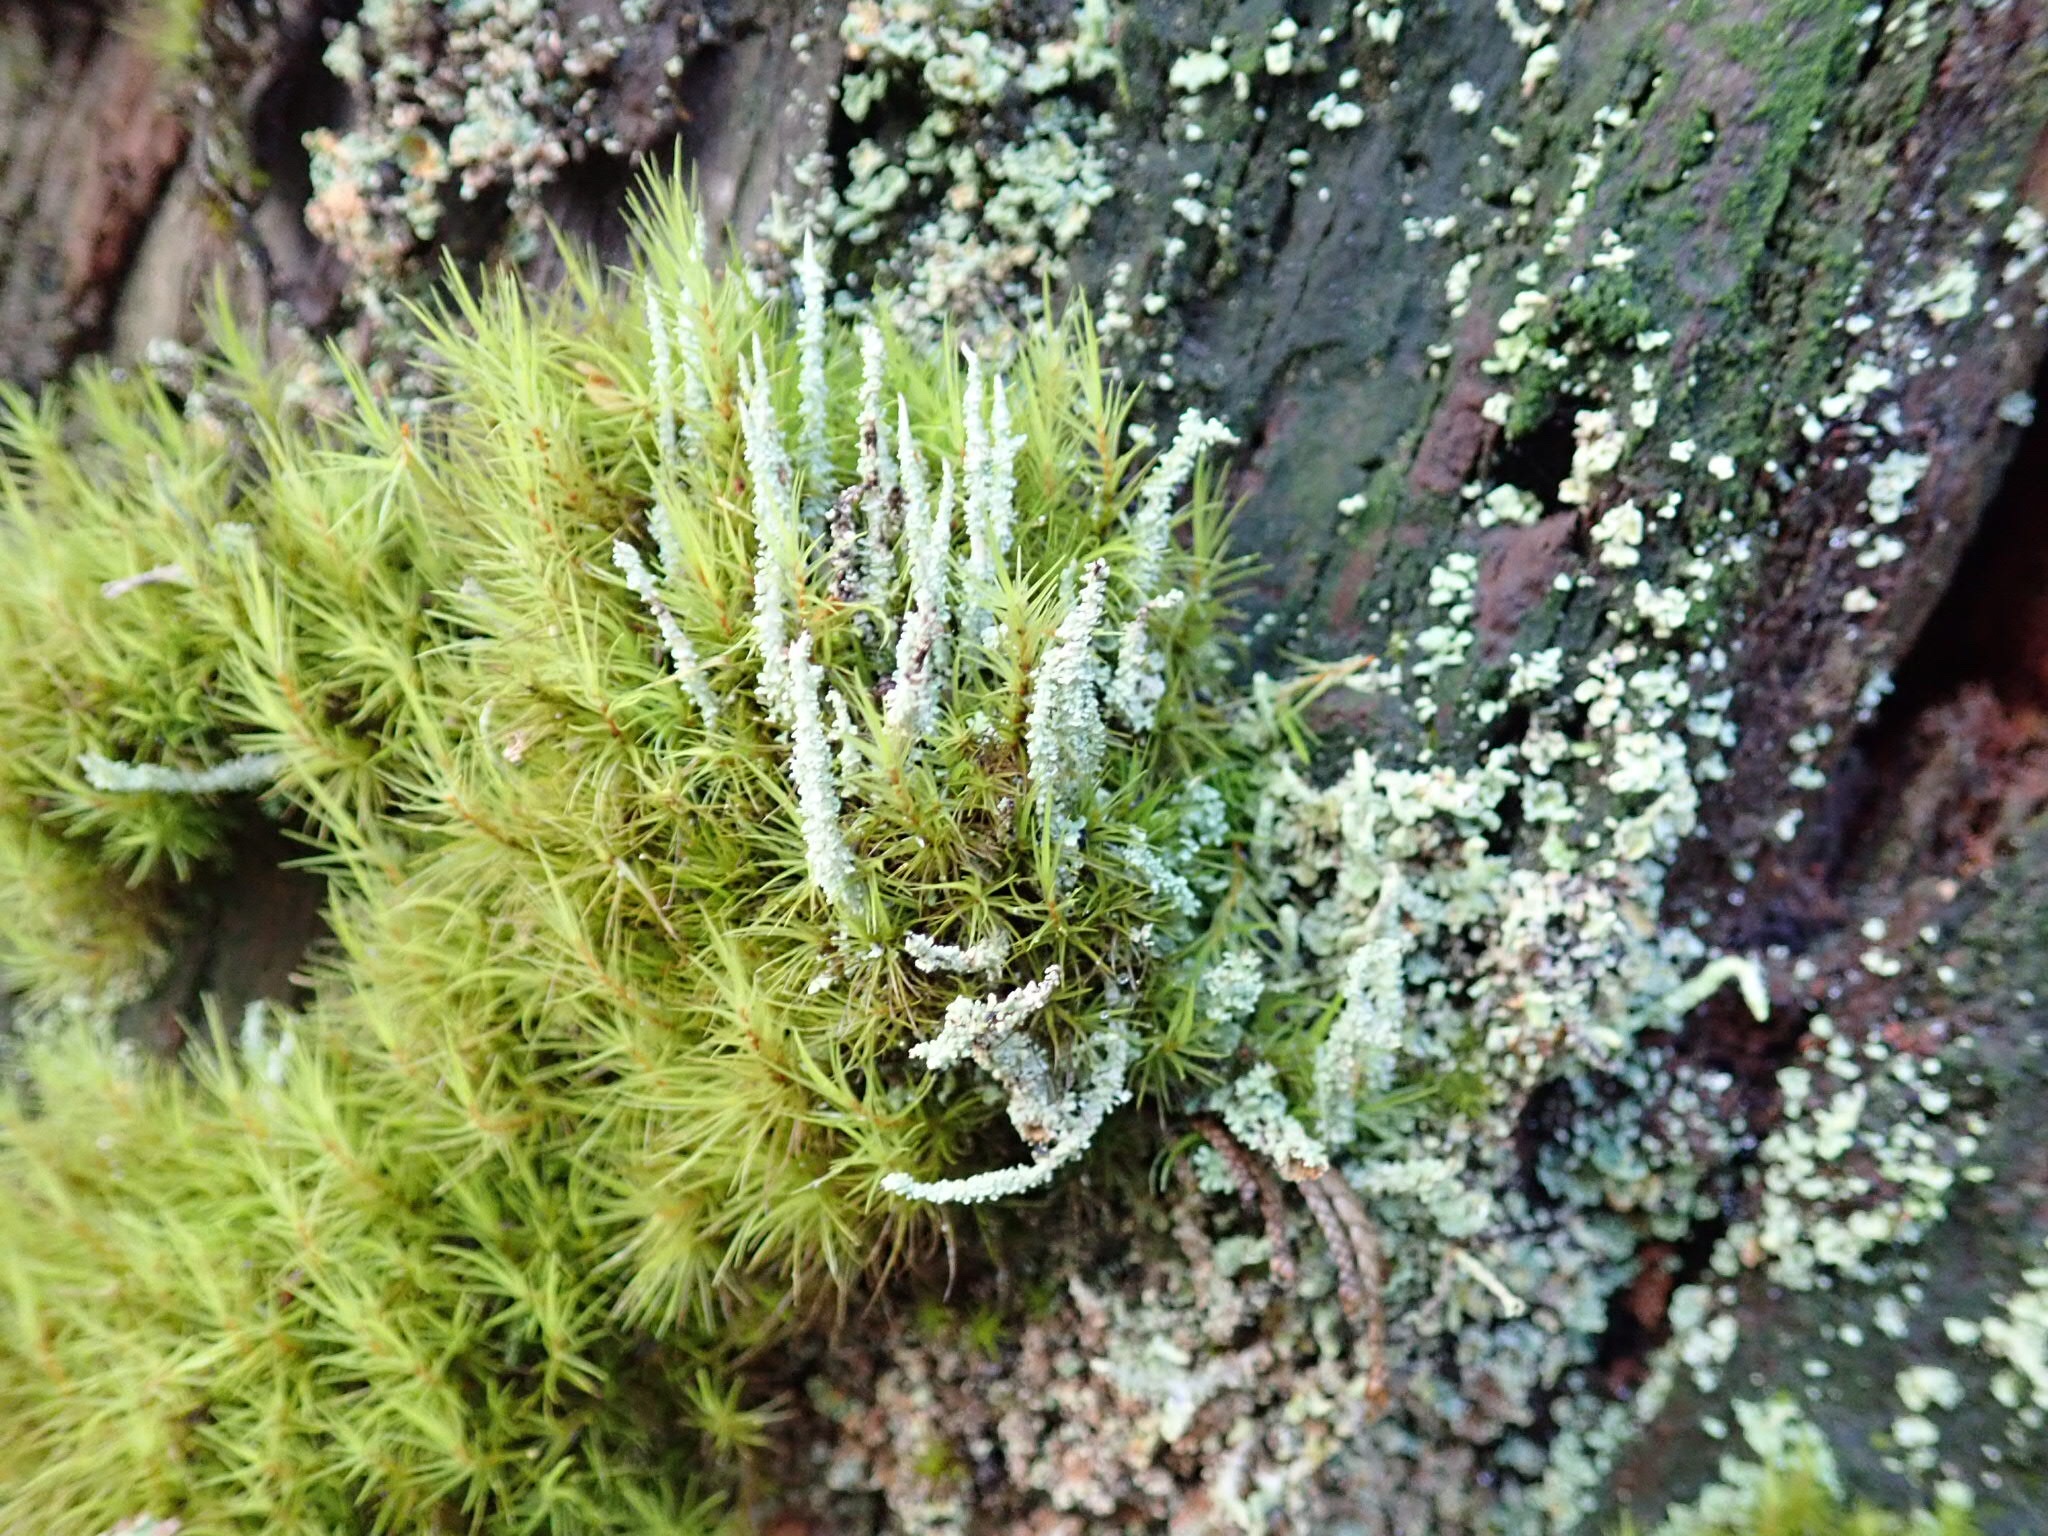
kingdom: Fungi
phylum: Ascomycota
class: Lecanoromycetes
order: Lecanorales
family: Cladoniaceae
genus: Cladonia
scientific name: Cladonia squamosa
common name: Dragon horn
